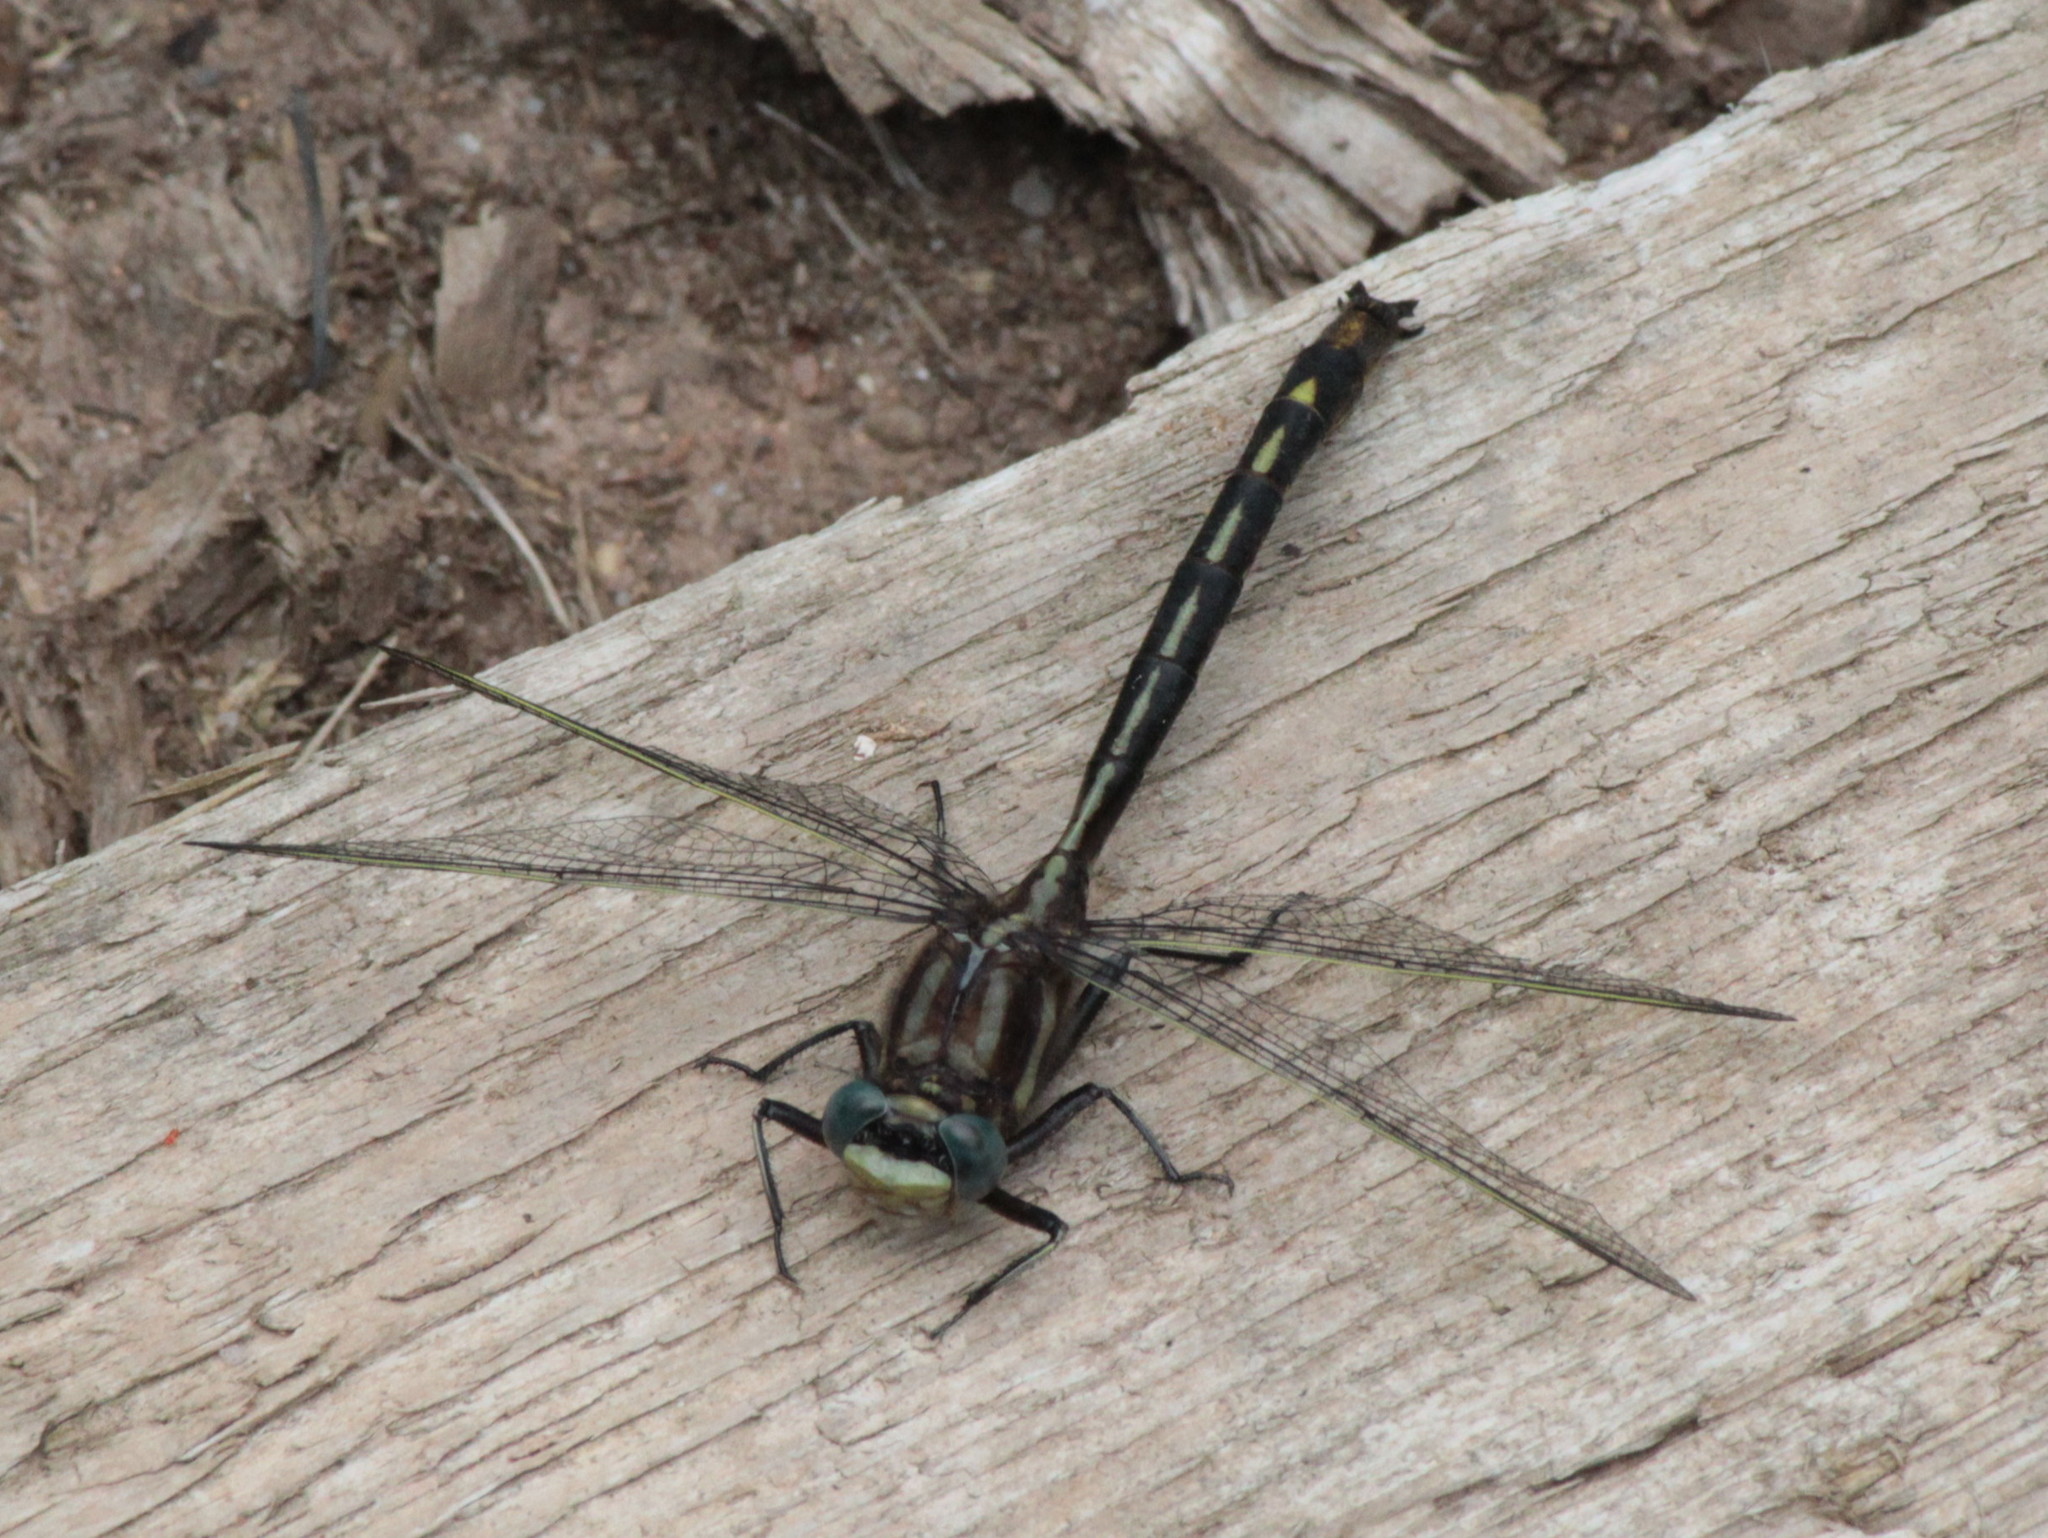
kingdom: Animalia
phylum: Arthropoda
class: Insecta
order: Odonata
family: Gomphidae
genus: Phanogomphus
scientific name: Phanogomphus spicatus
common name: Dusky clubtail
